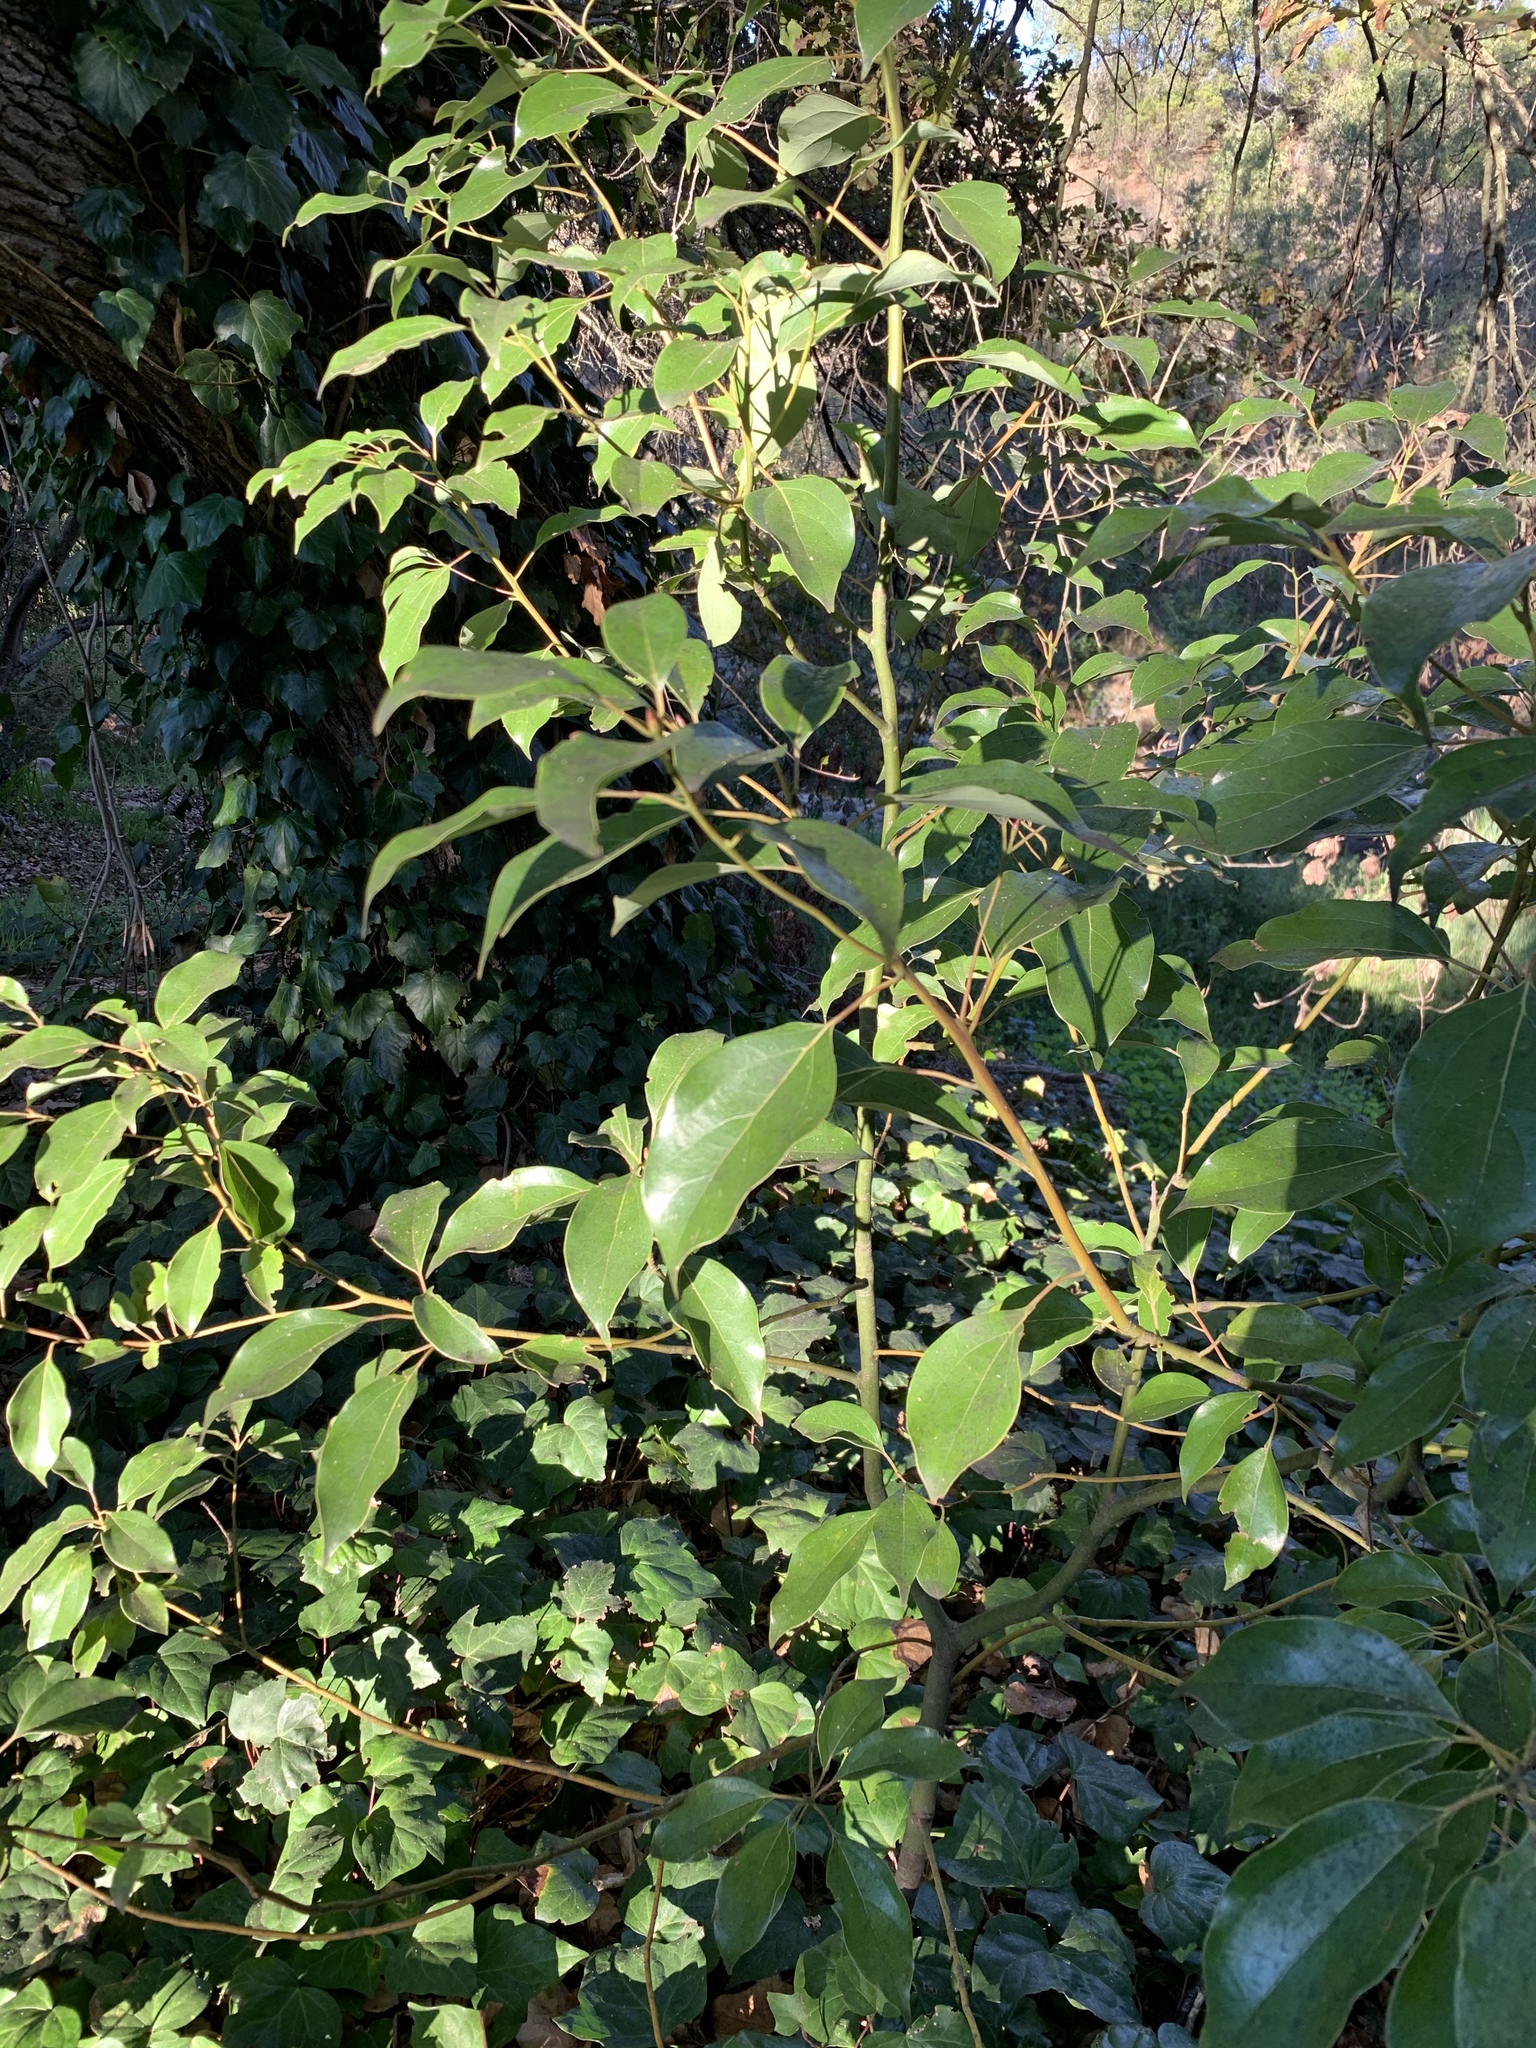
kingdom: Plantae
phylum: Tracheophyta
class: Magnoliopsida
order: Laurales
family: Lauraceae
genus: Cinnamomum
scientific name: Cinnamomum camphora
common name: Camphortree
